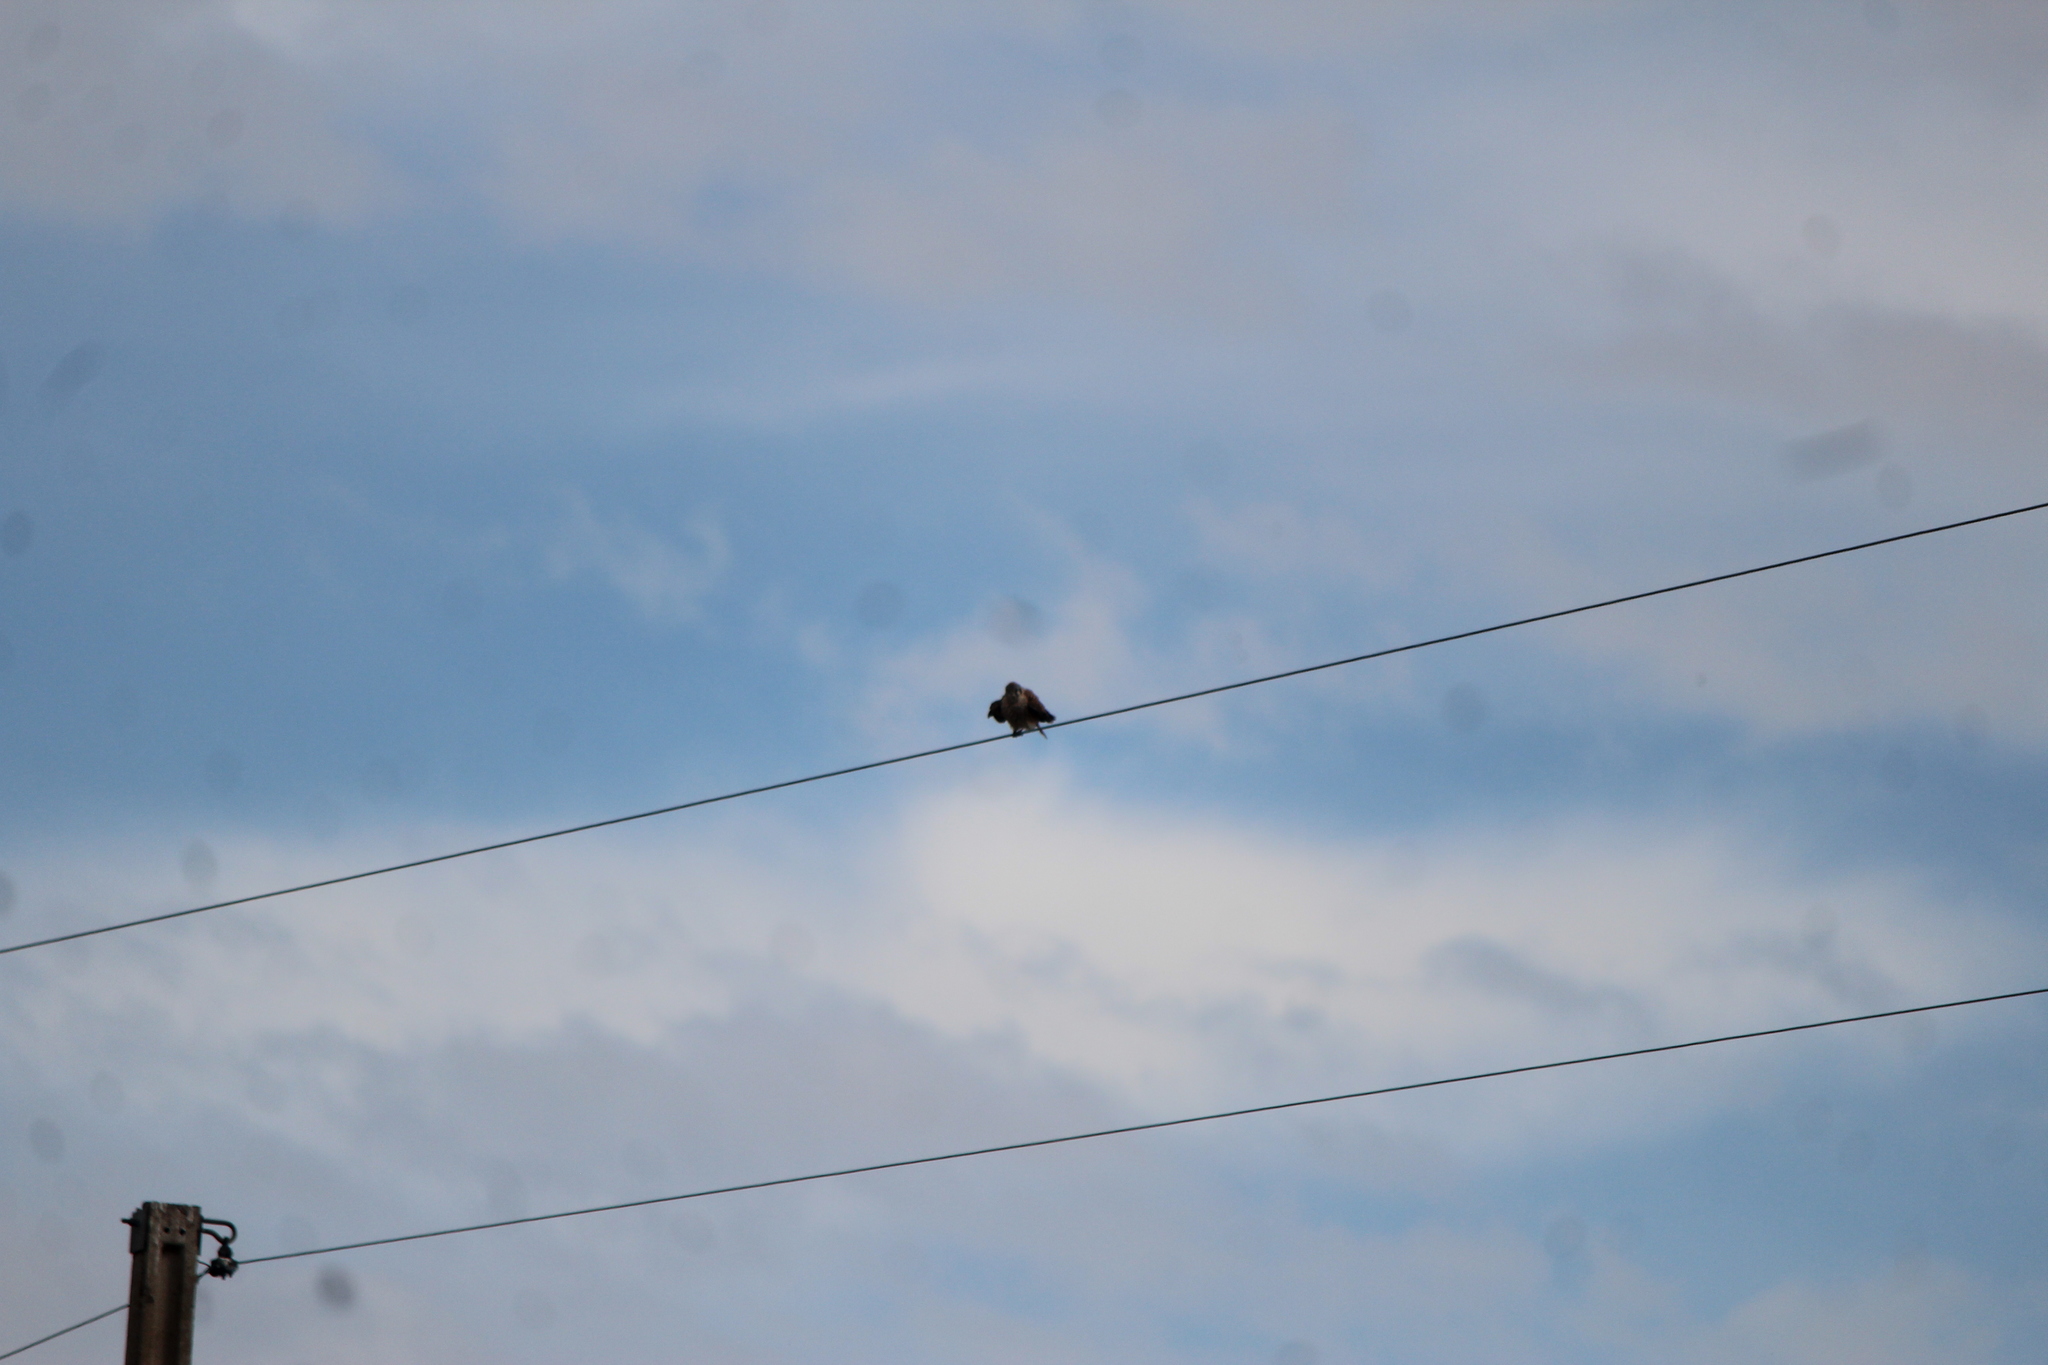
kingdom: Animalia
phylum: Chordata
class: Aves
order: Falconiformes
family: Falconidae
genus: Falco
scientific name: Falco sparverius
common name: American kestrel
